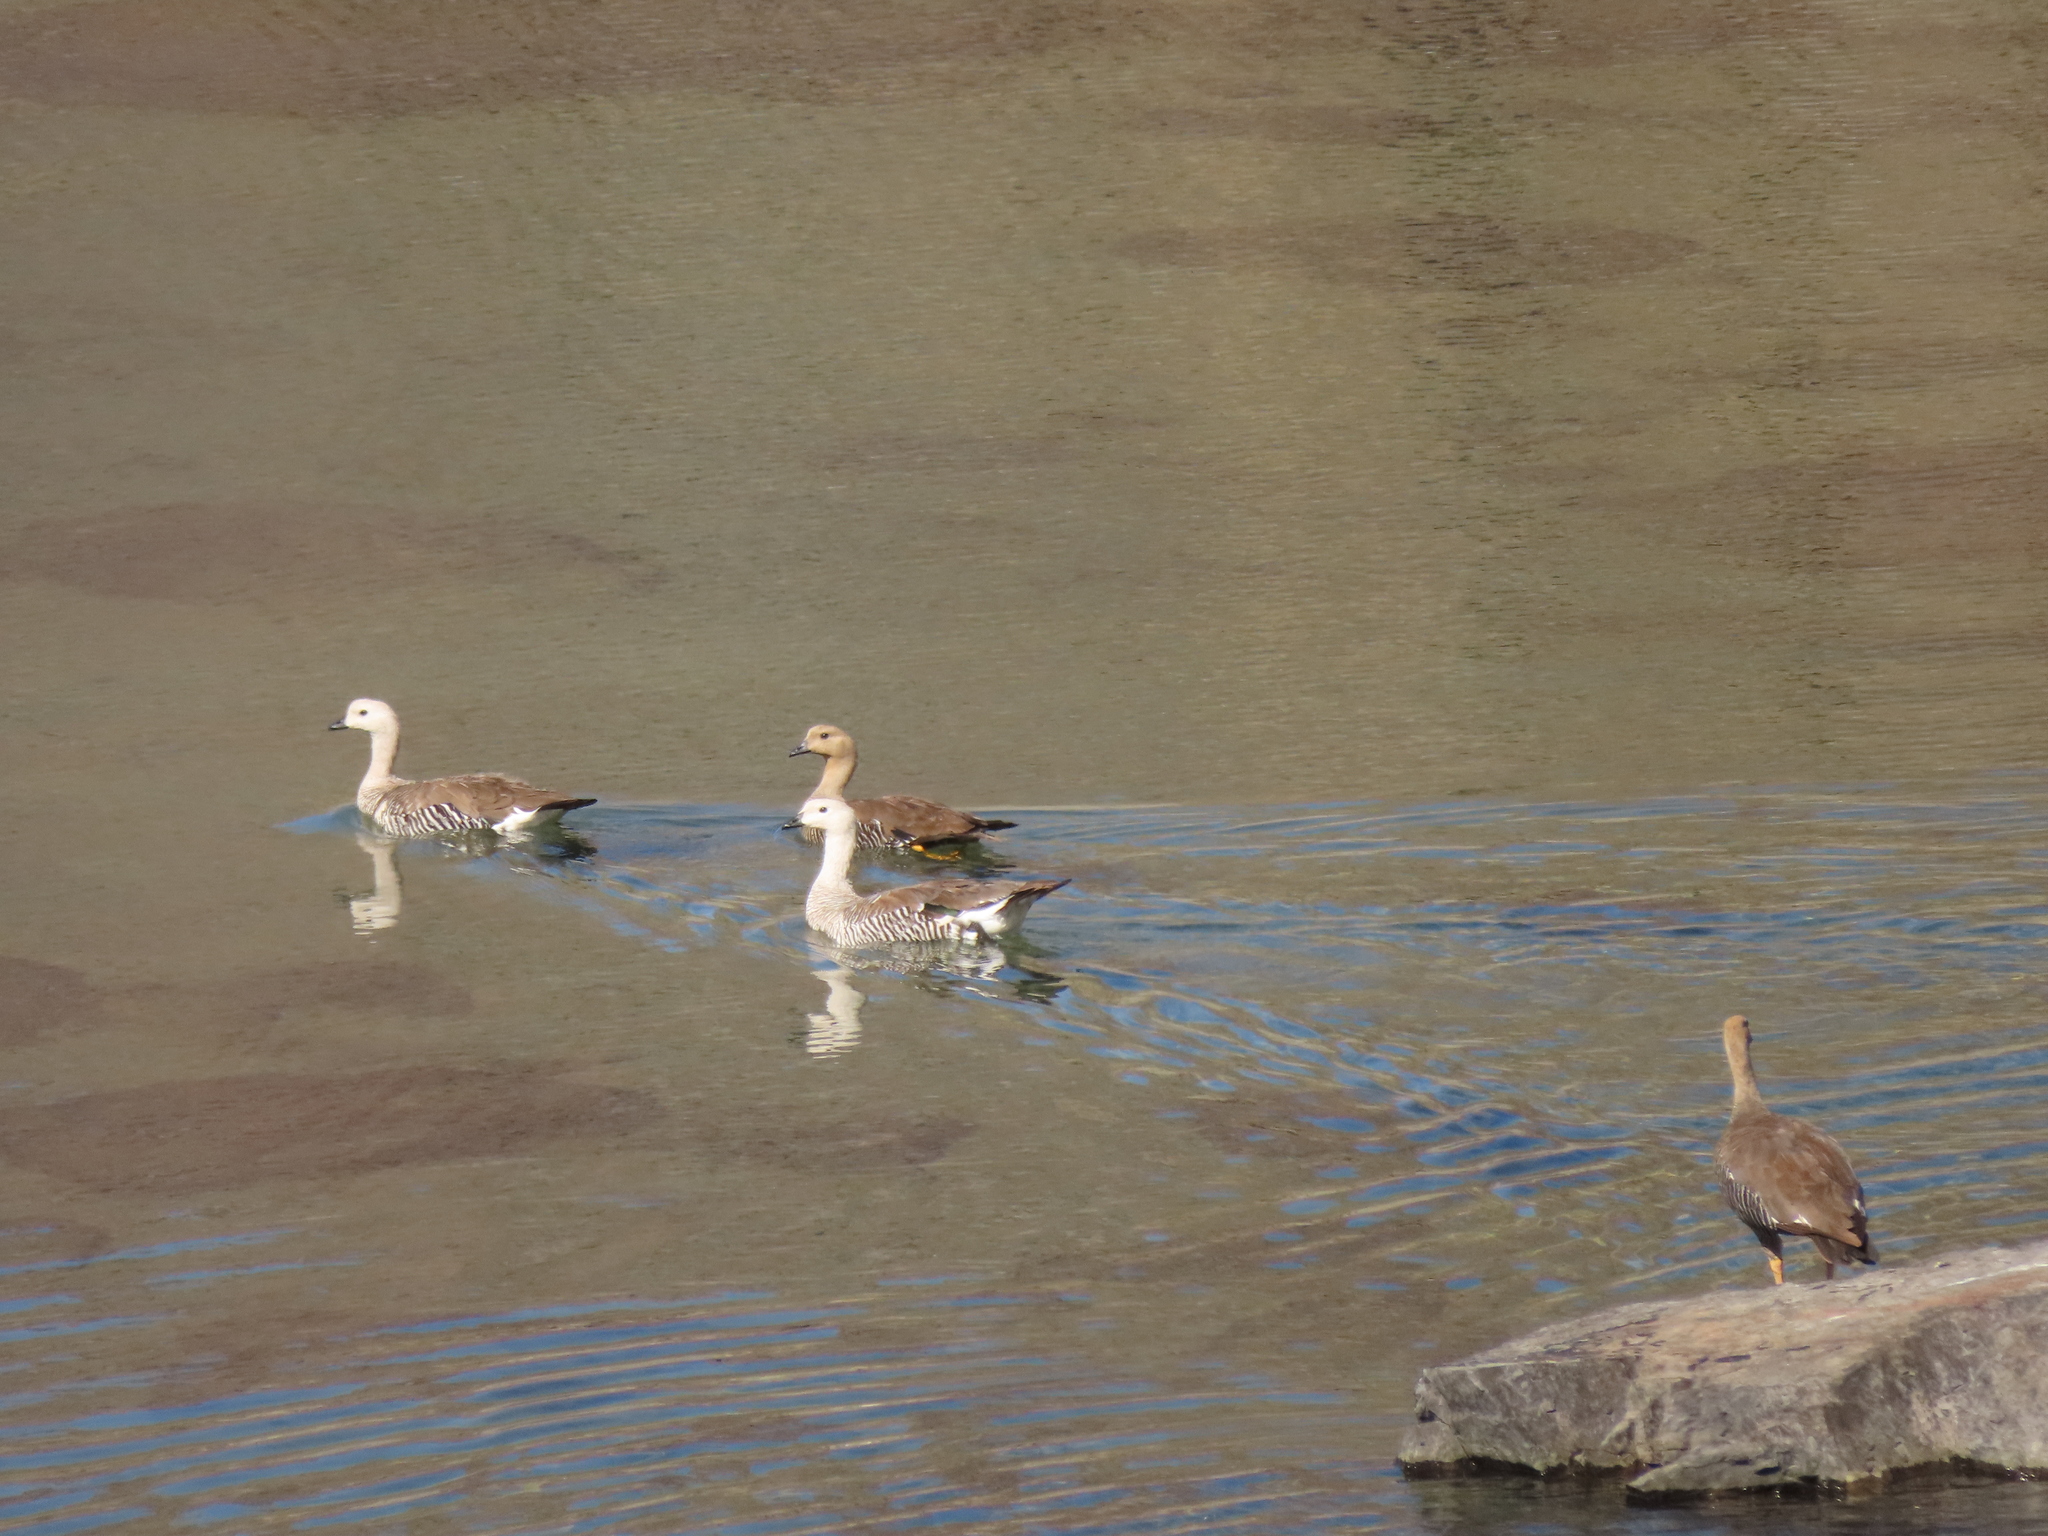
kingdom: Animalia
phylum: Chordata
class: Aves
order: Anseriformes
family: Anatidae
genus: Chloephaga
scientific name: Chloephaga picta
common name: Upland goose
